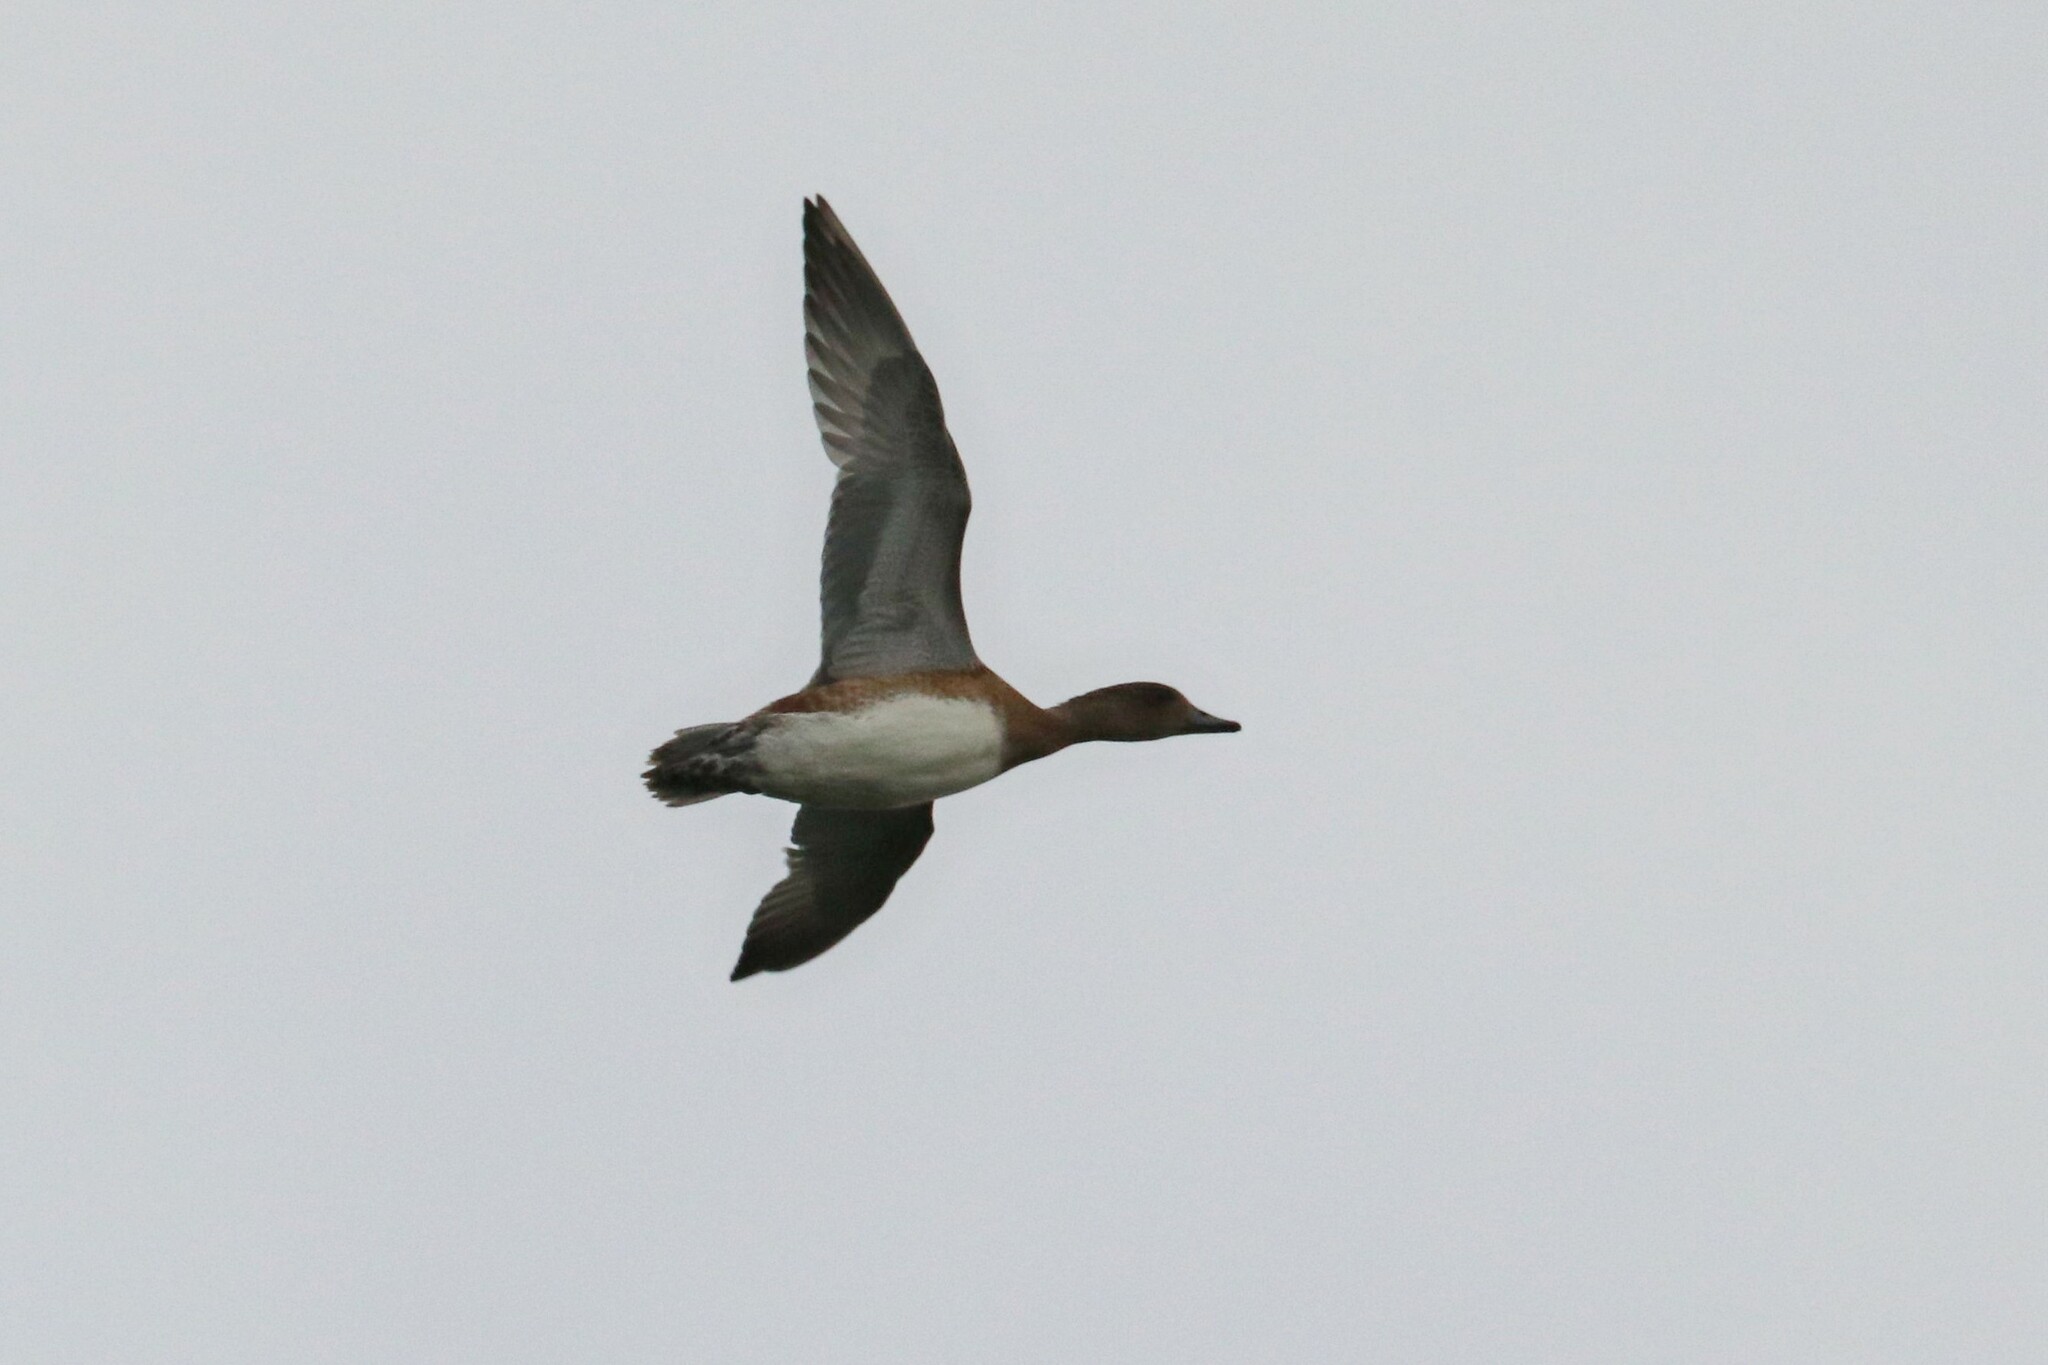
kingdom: Animalia
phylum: Chordata
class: Aves
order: Anseriformes
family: Anatidae
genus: Mareca
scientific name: Mareca penelope
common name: Eurasian wigeon
